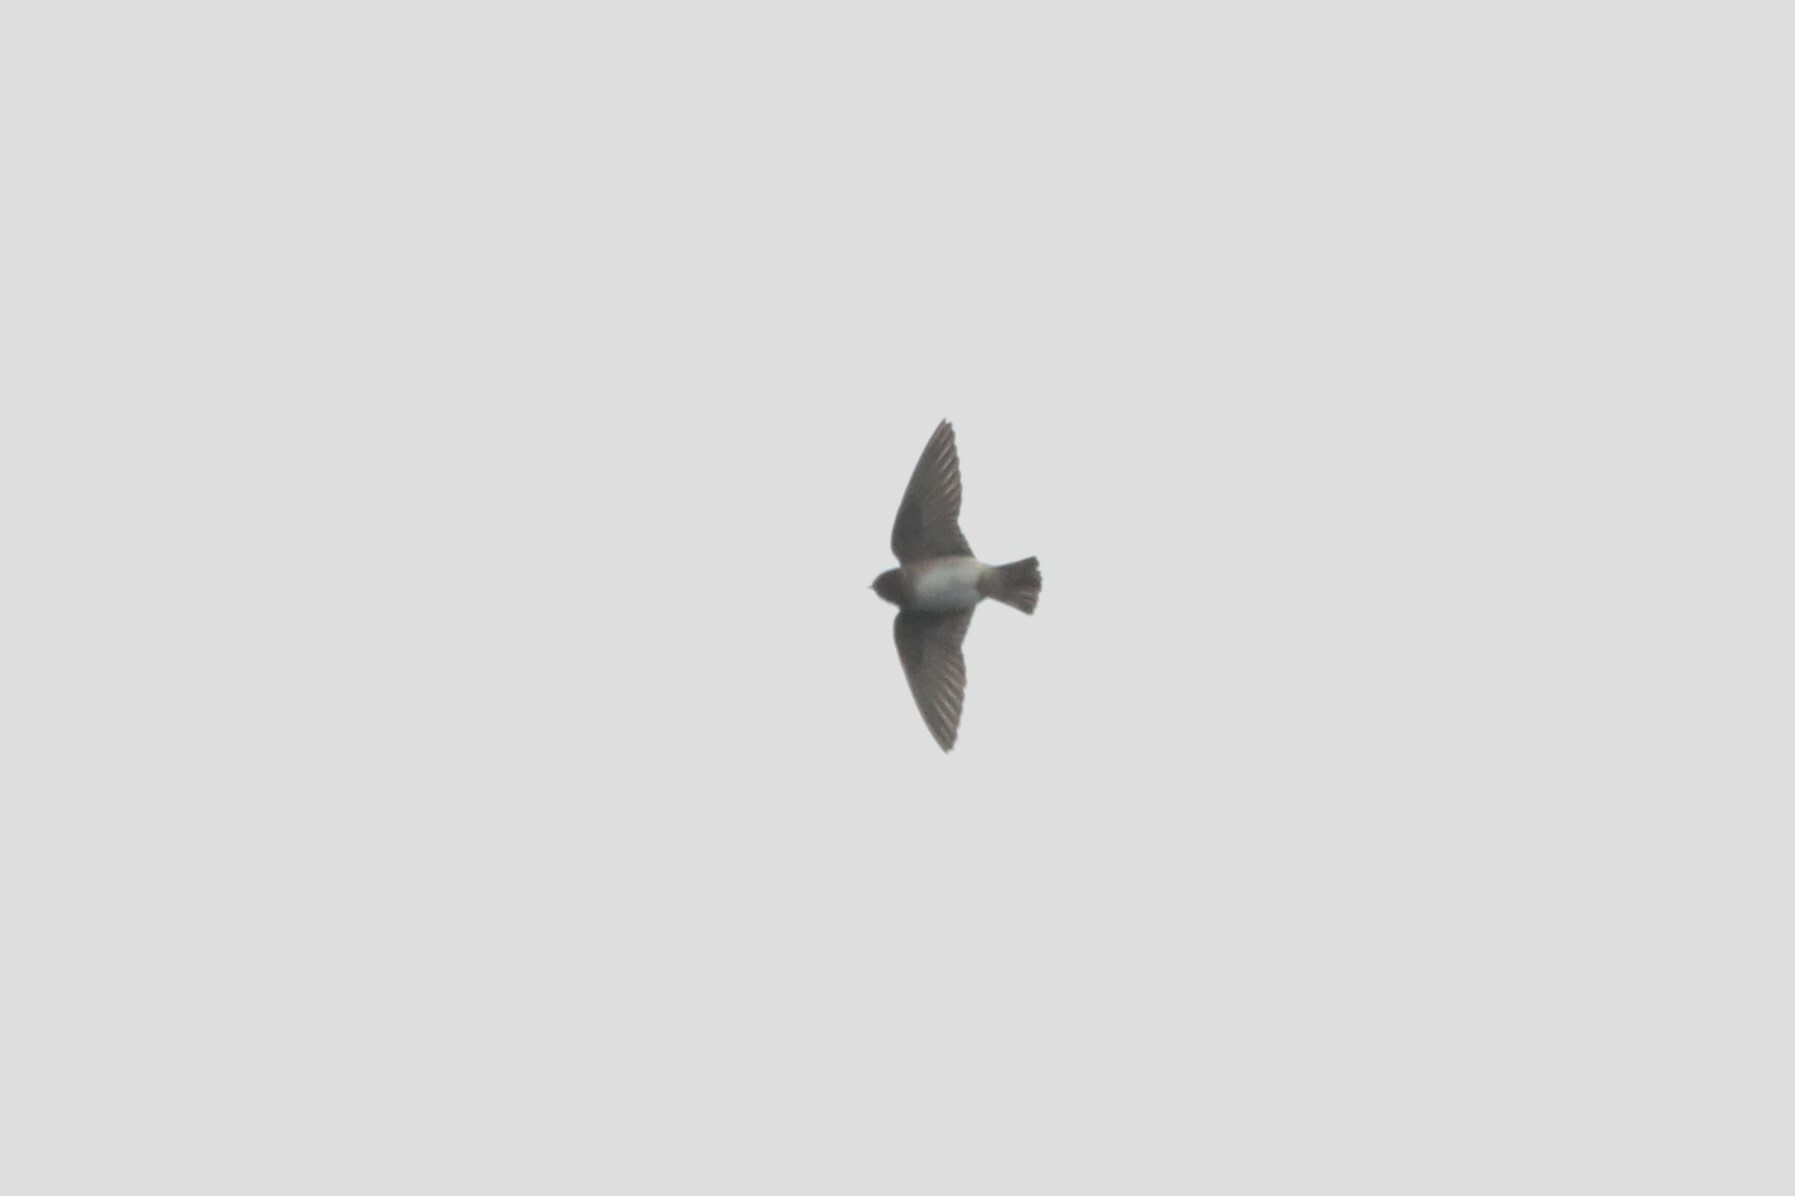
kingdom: Animalia
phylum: Chordata
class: Aves
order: Passeriformes
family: Hirundinidae
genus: Petrochelidon
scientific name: Petrochelidon pyrrhonota
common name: American cliff swallow
